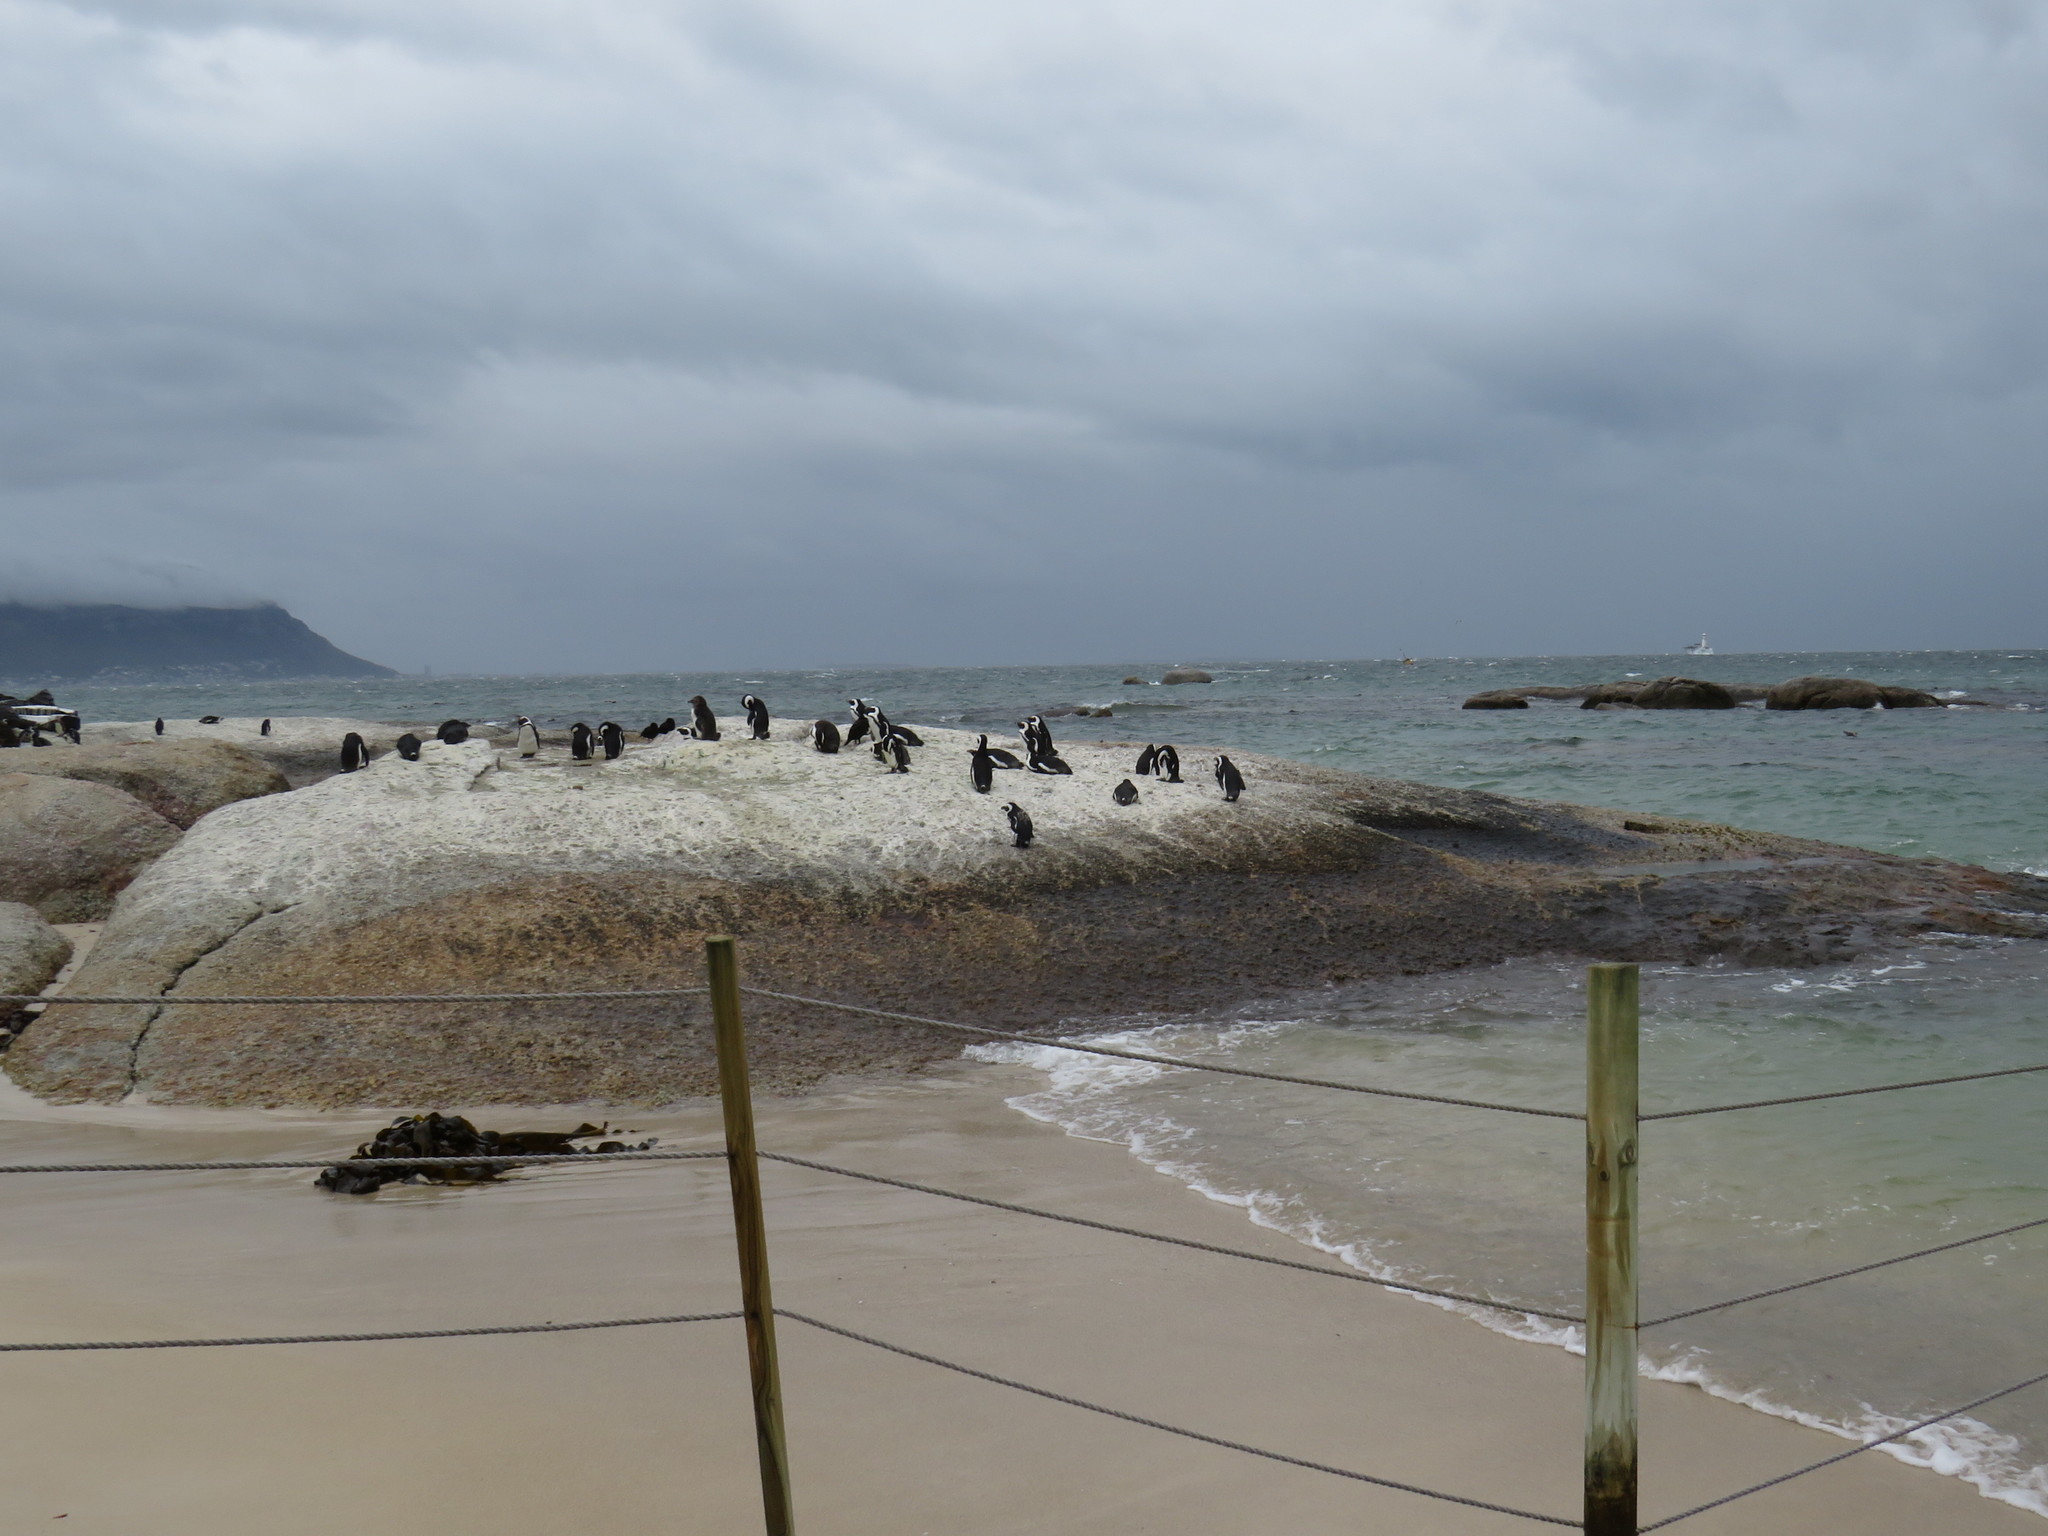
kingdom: Animalia
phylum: Chordata
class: Aves
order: Sphenisciformes
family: Spheniscidae
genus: Spheniscus
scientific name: Spheniscus demersus
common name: African penguin
